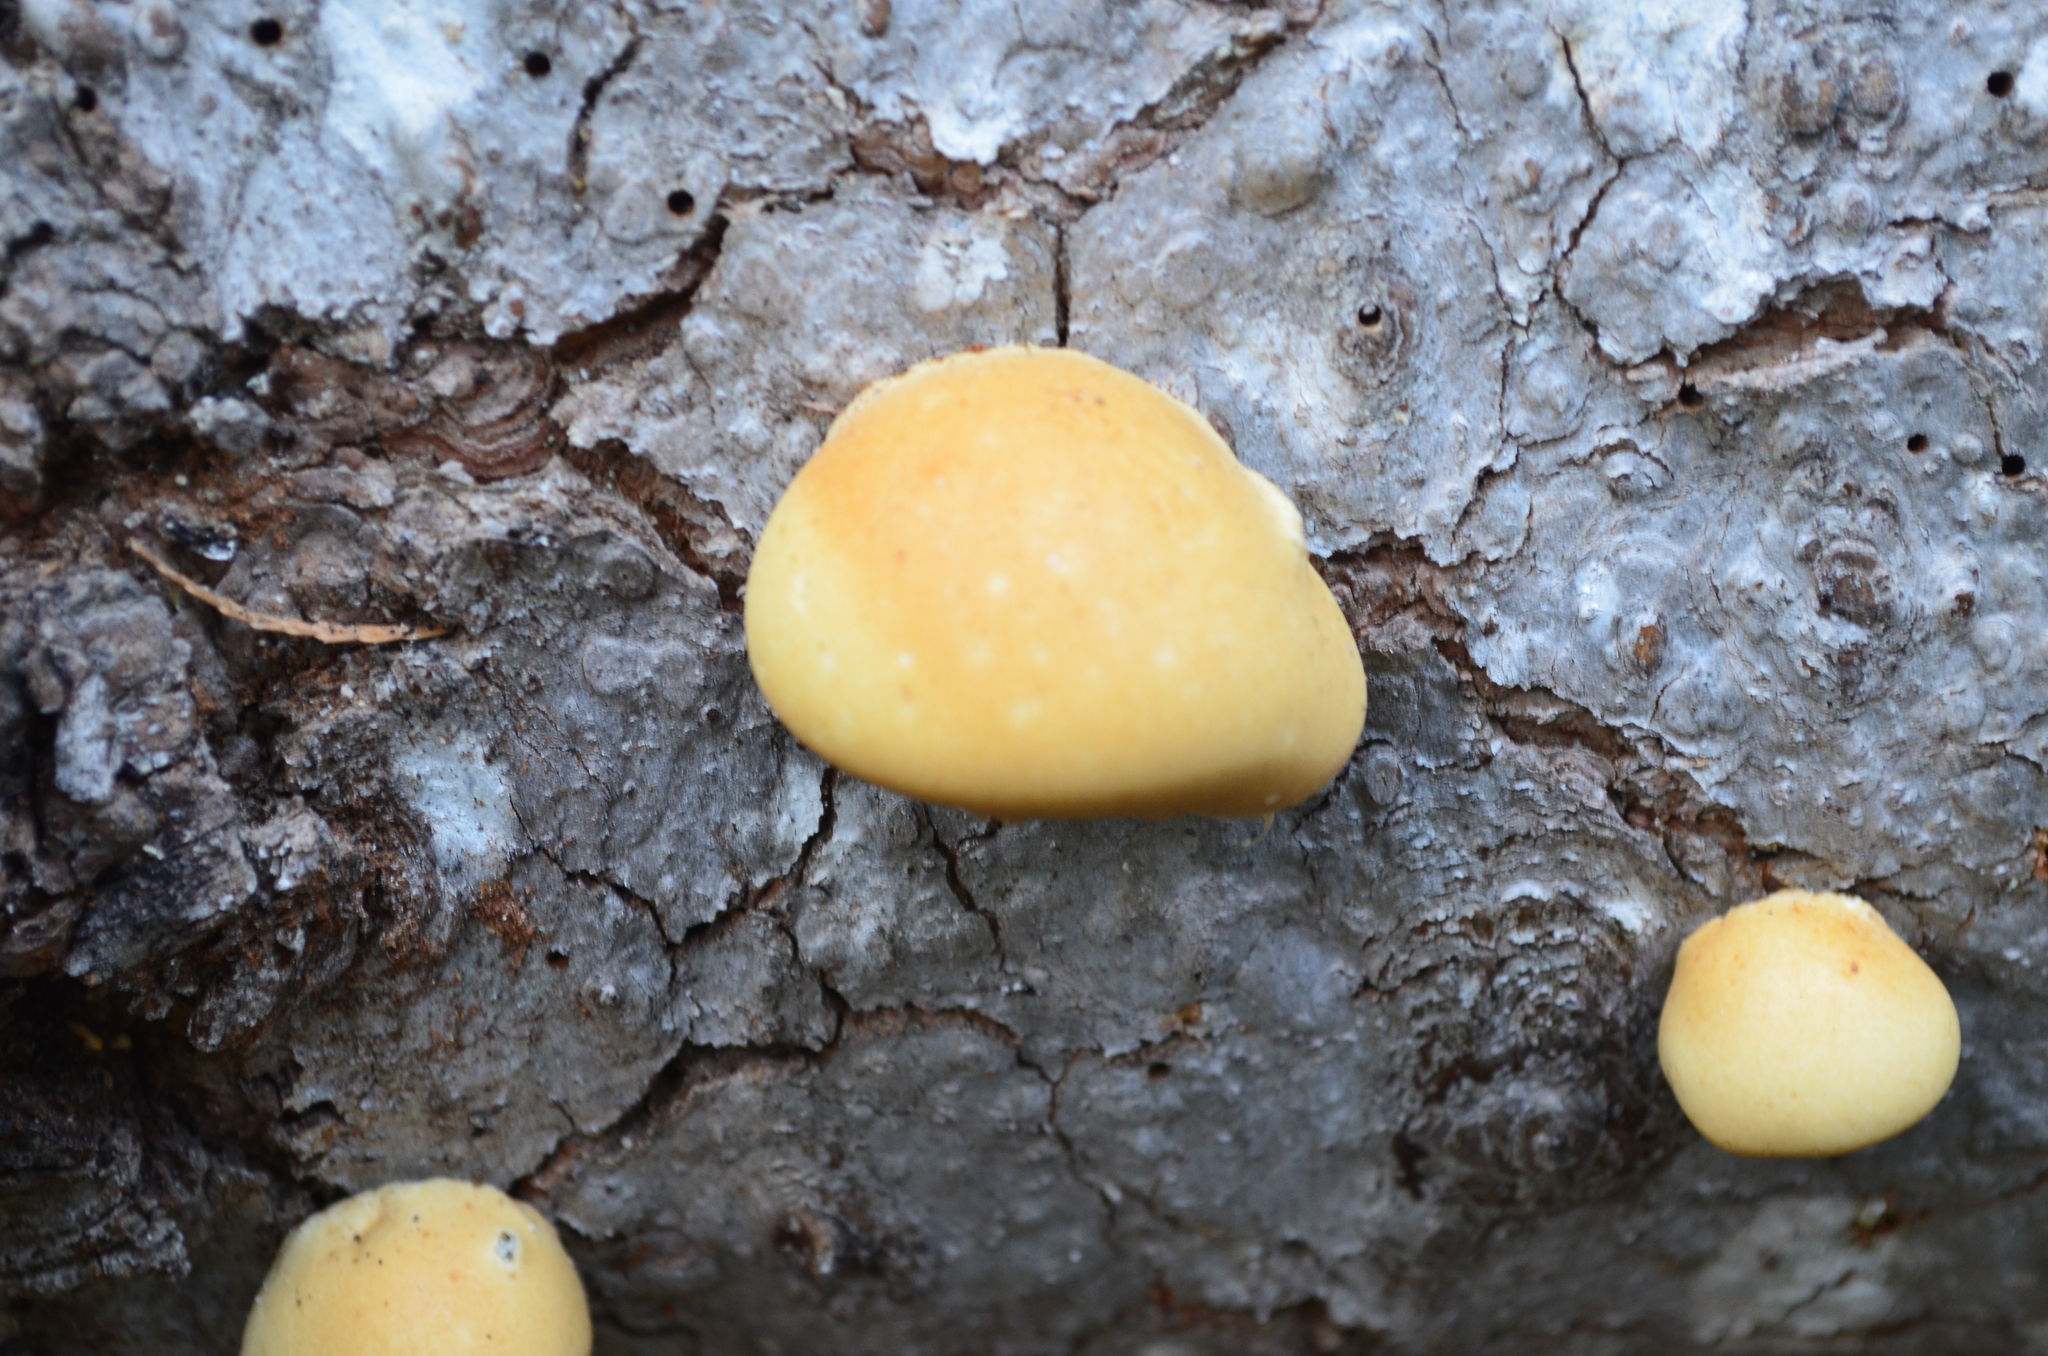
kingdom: Fungi
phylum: Basidiomycota
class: Agaricomycetes
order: Polyporales
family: Polyporaceae
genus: Cryptoporus
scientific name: Cryptoporus volvatus
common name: Veiled polypore
